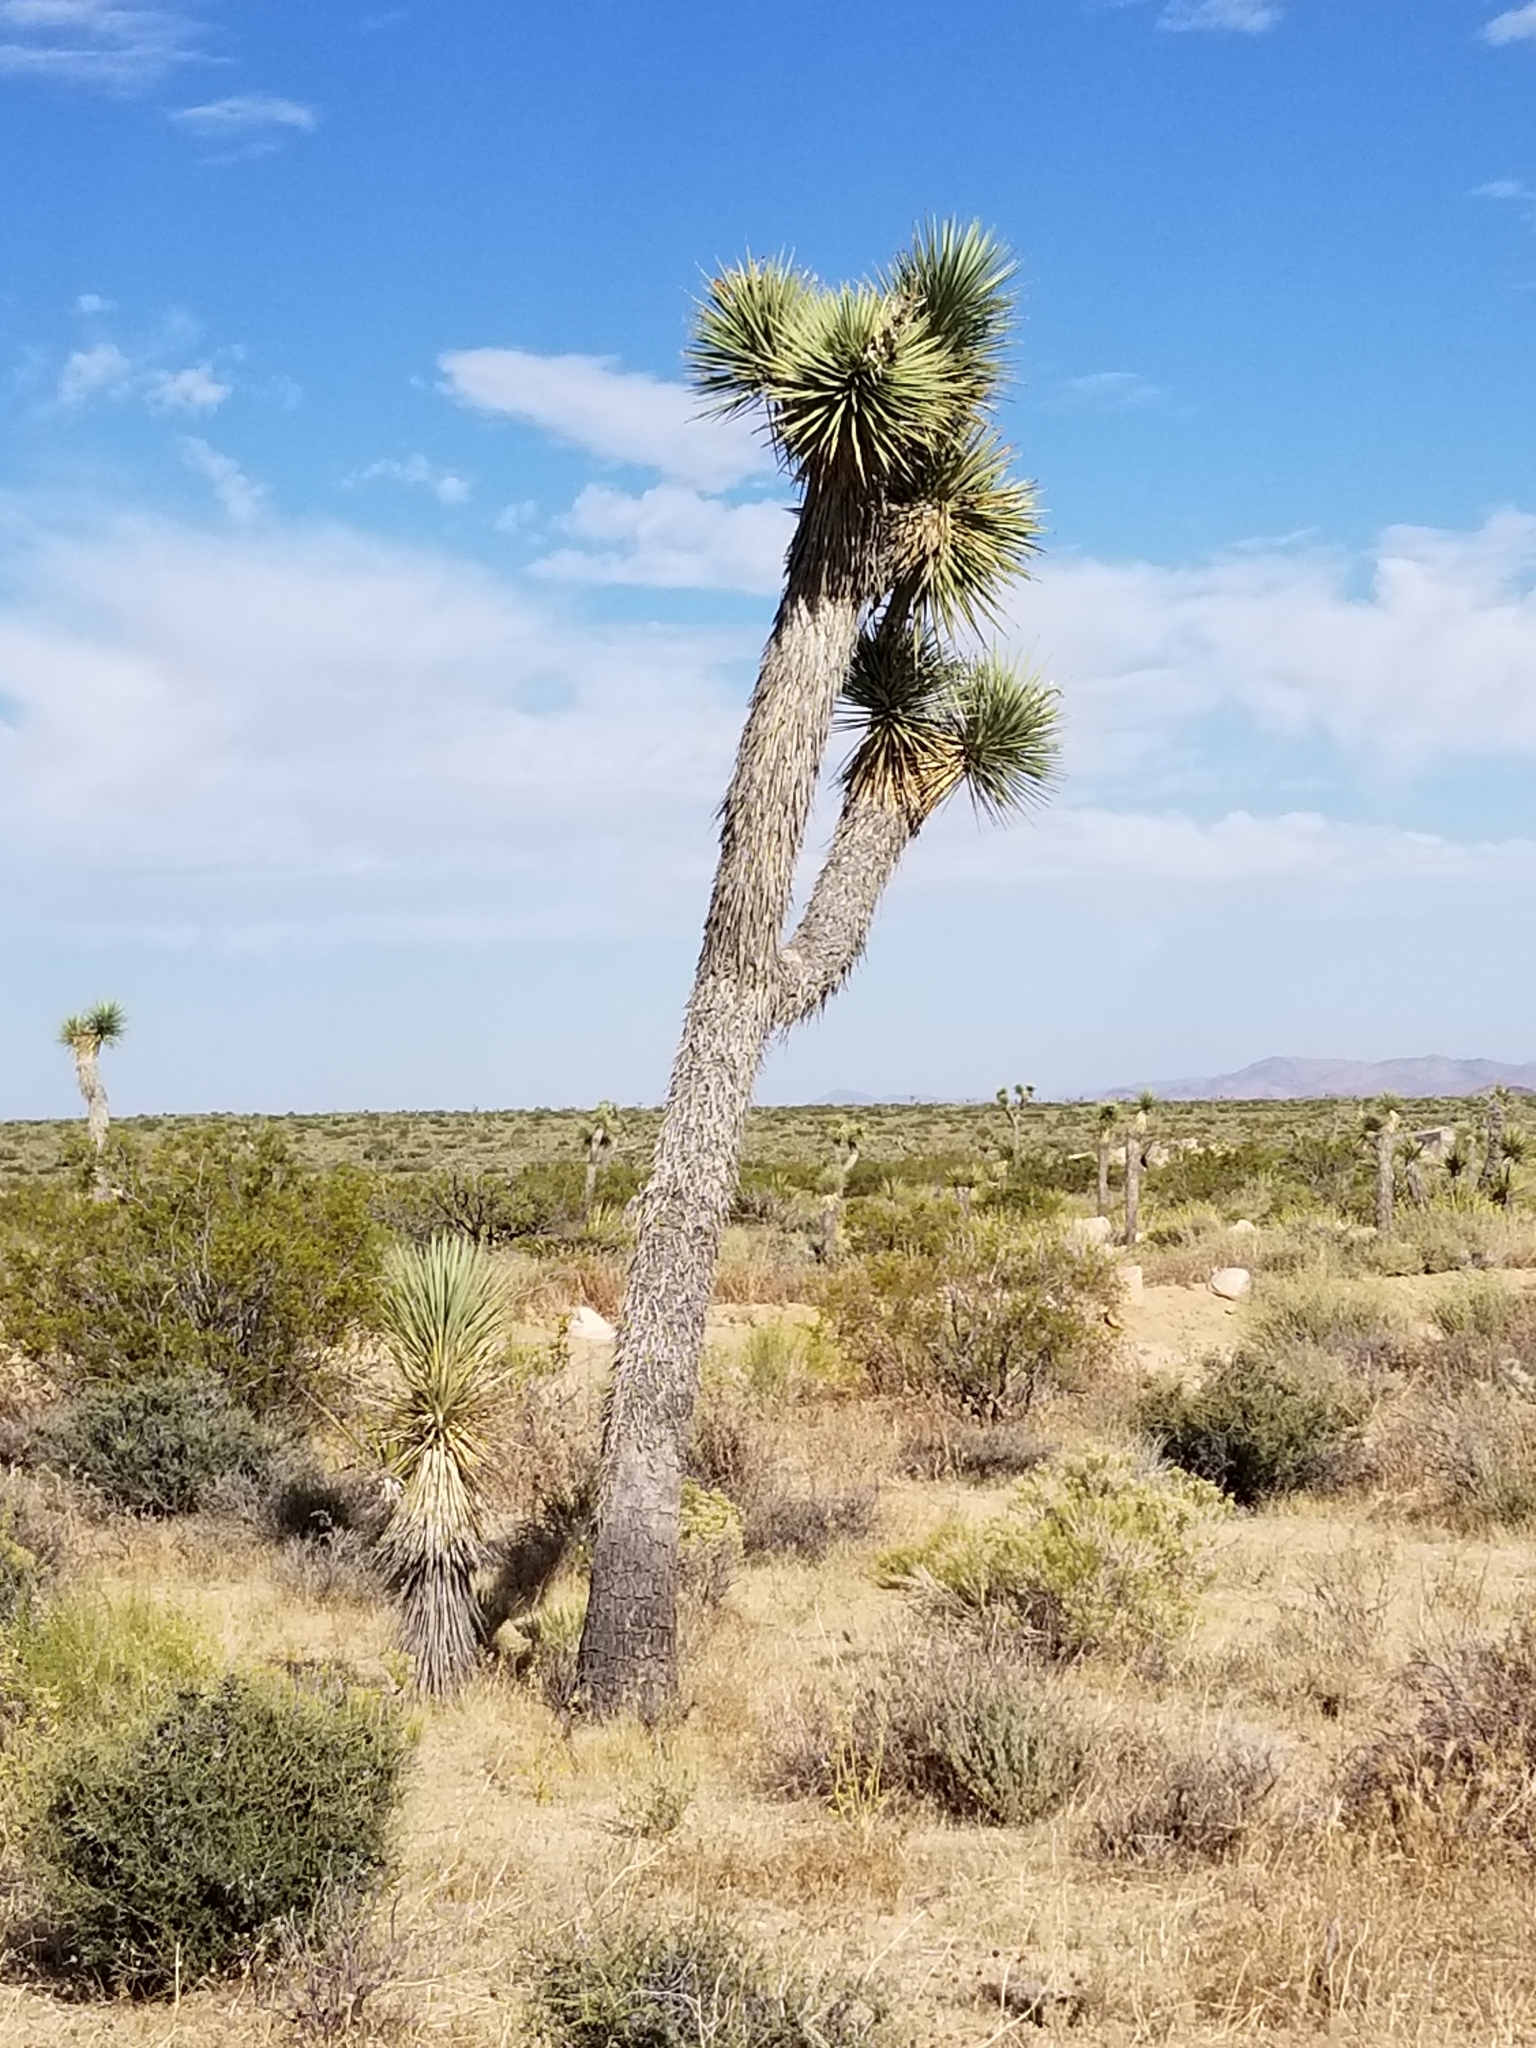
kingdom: Plantae
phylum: Tracheophyta
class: Liliopsida
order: Asparagales
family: Asparagaceae
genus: Yucca
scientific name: Yucca brevifolia
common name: Joshua tree
